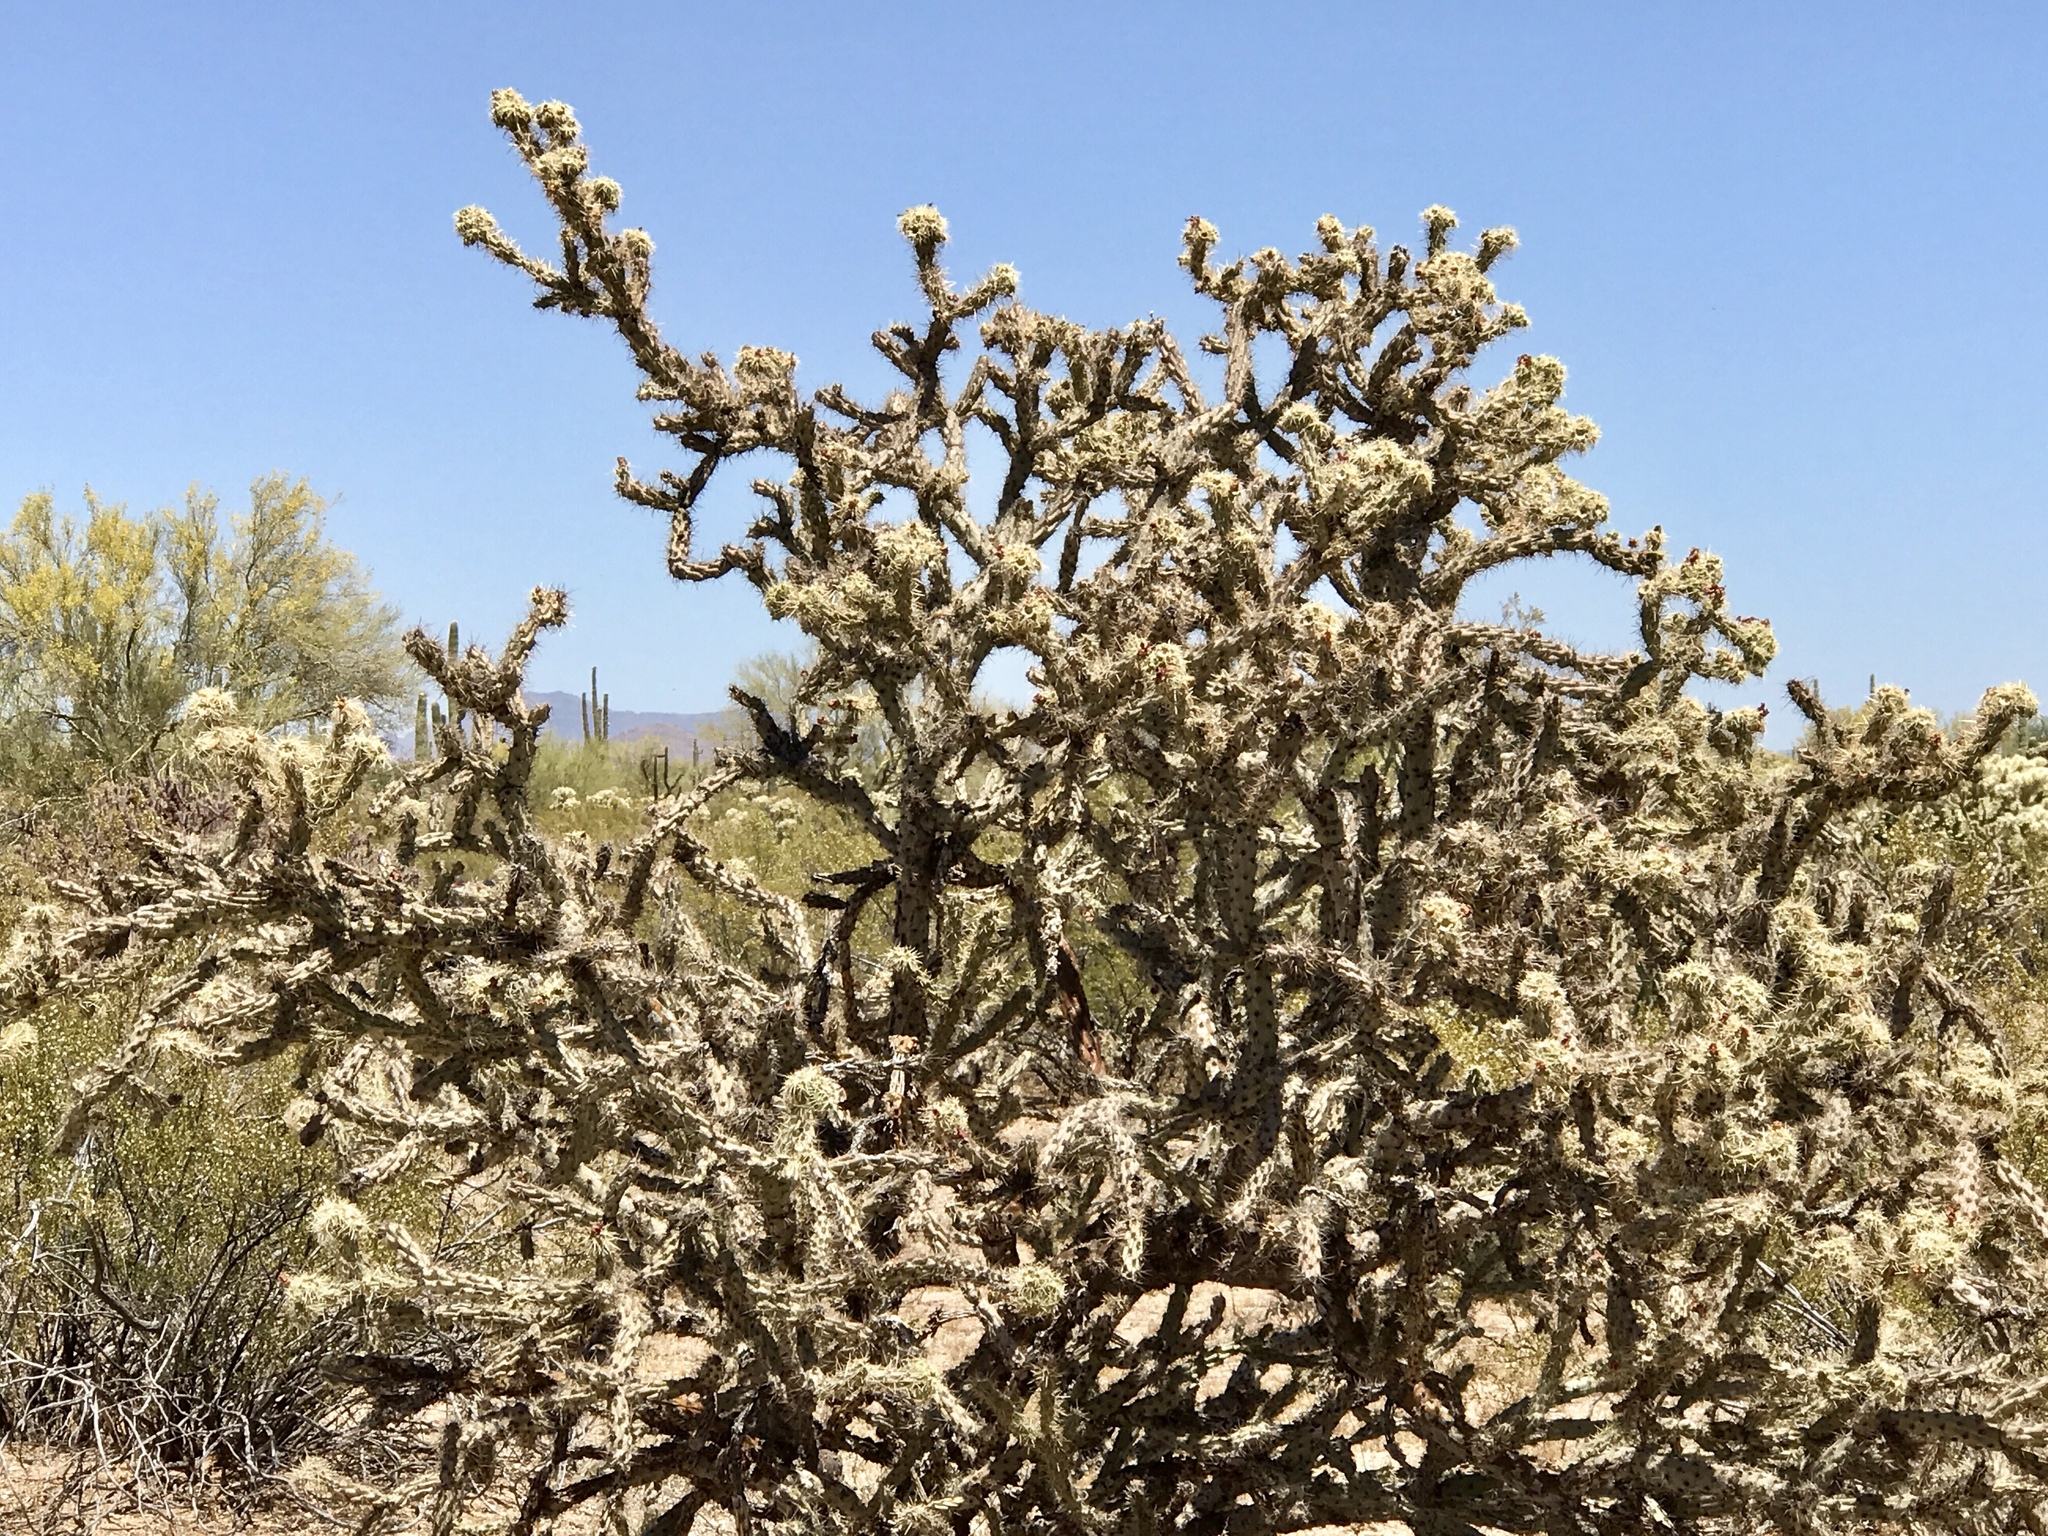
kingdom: Plantae
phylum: Tracheophyta
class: Magnoliopsida
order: Caryophyllales
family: Cactaceae
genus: Cylindropuntia
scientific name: Cylindropuntia acanthocarpa
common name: Buckhorn cholla
